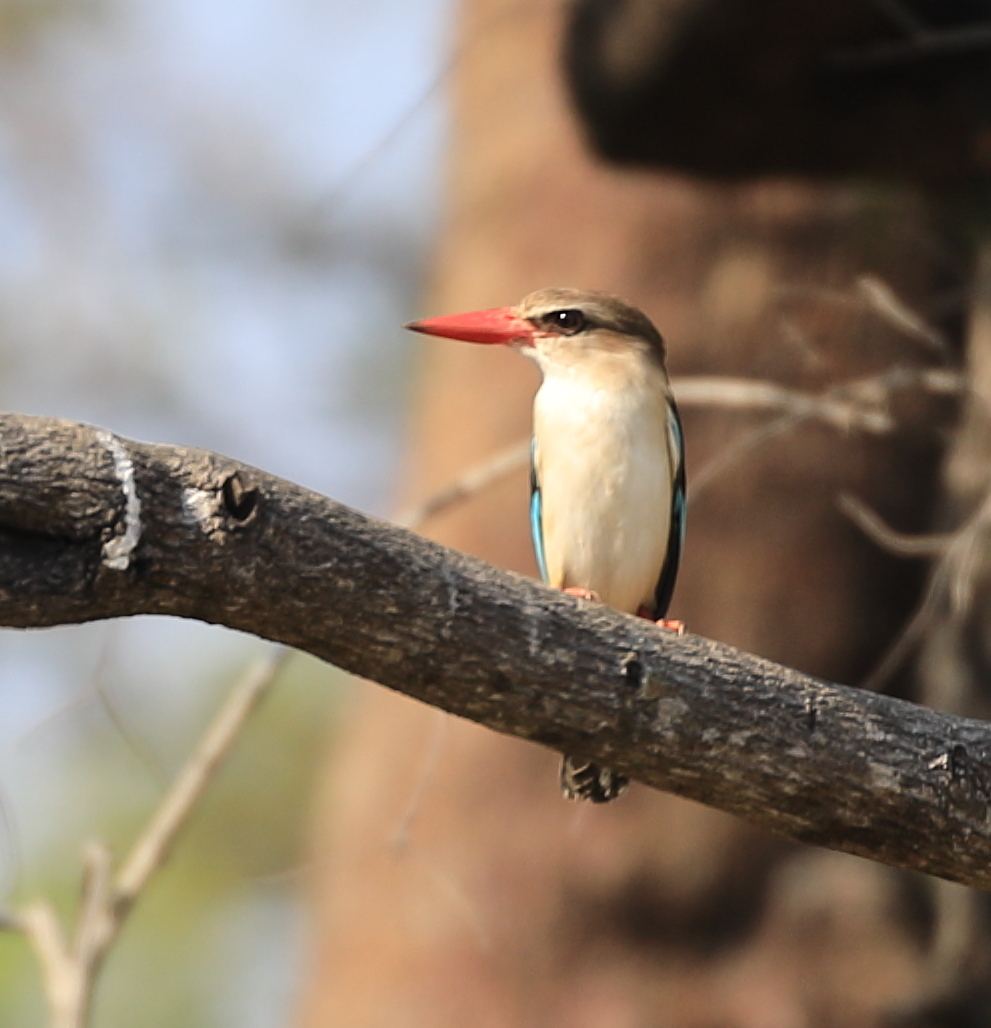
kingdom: Animalia
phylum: Chordata
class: Aves
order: Coraciiformes
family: Alcedinidae
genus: Halcyon
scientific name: Halcyon albiventris
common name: Brown-hooded kingfisher
